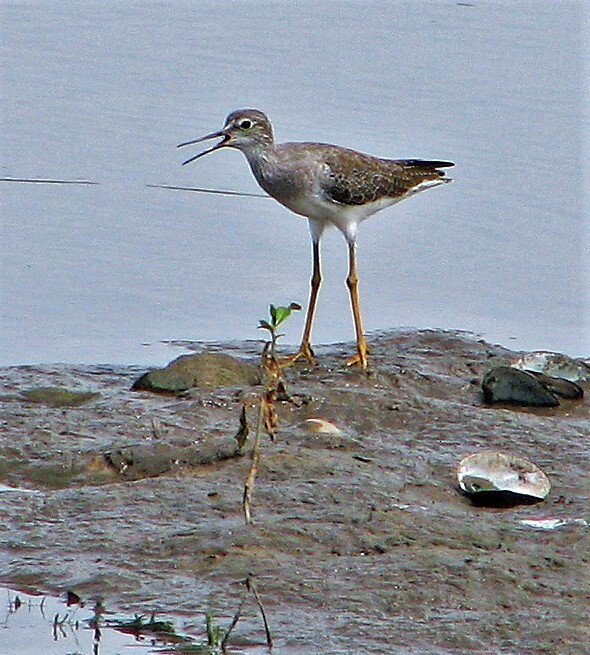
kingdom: Animalia
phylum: Chordata
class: Aves
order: Charadriiformes
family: Scolopacidae
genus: Tringa
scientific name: Tringa flavipes
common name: Lesser yellowlegs
